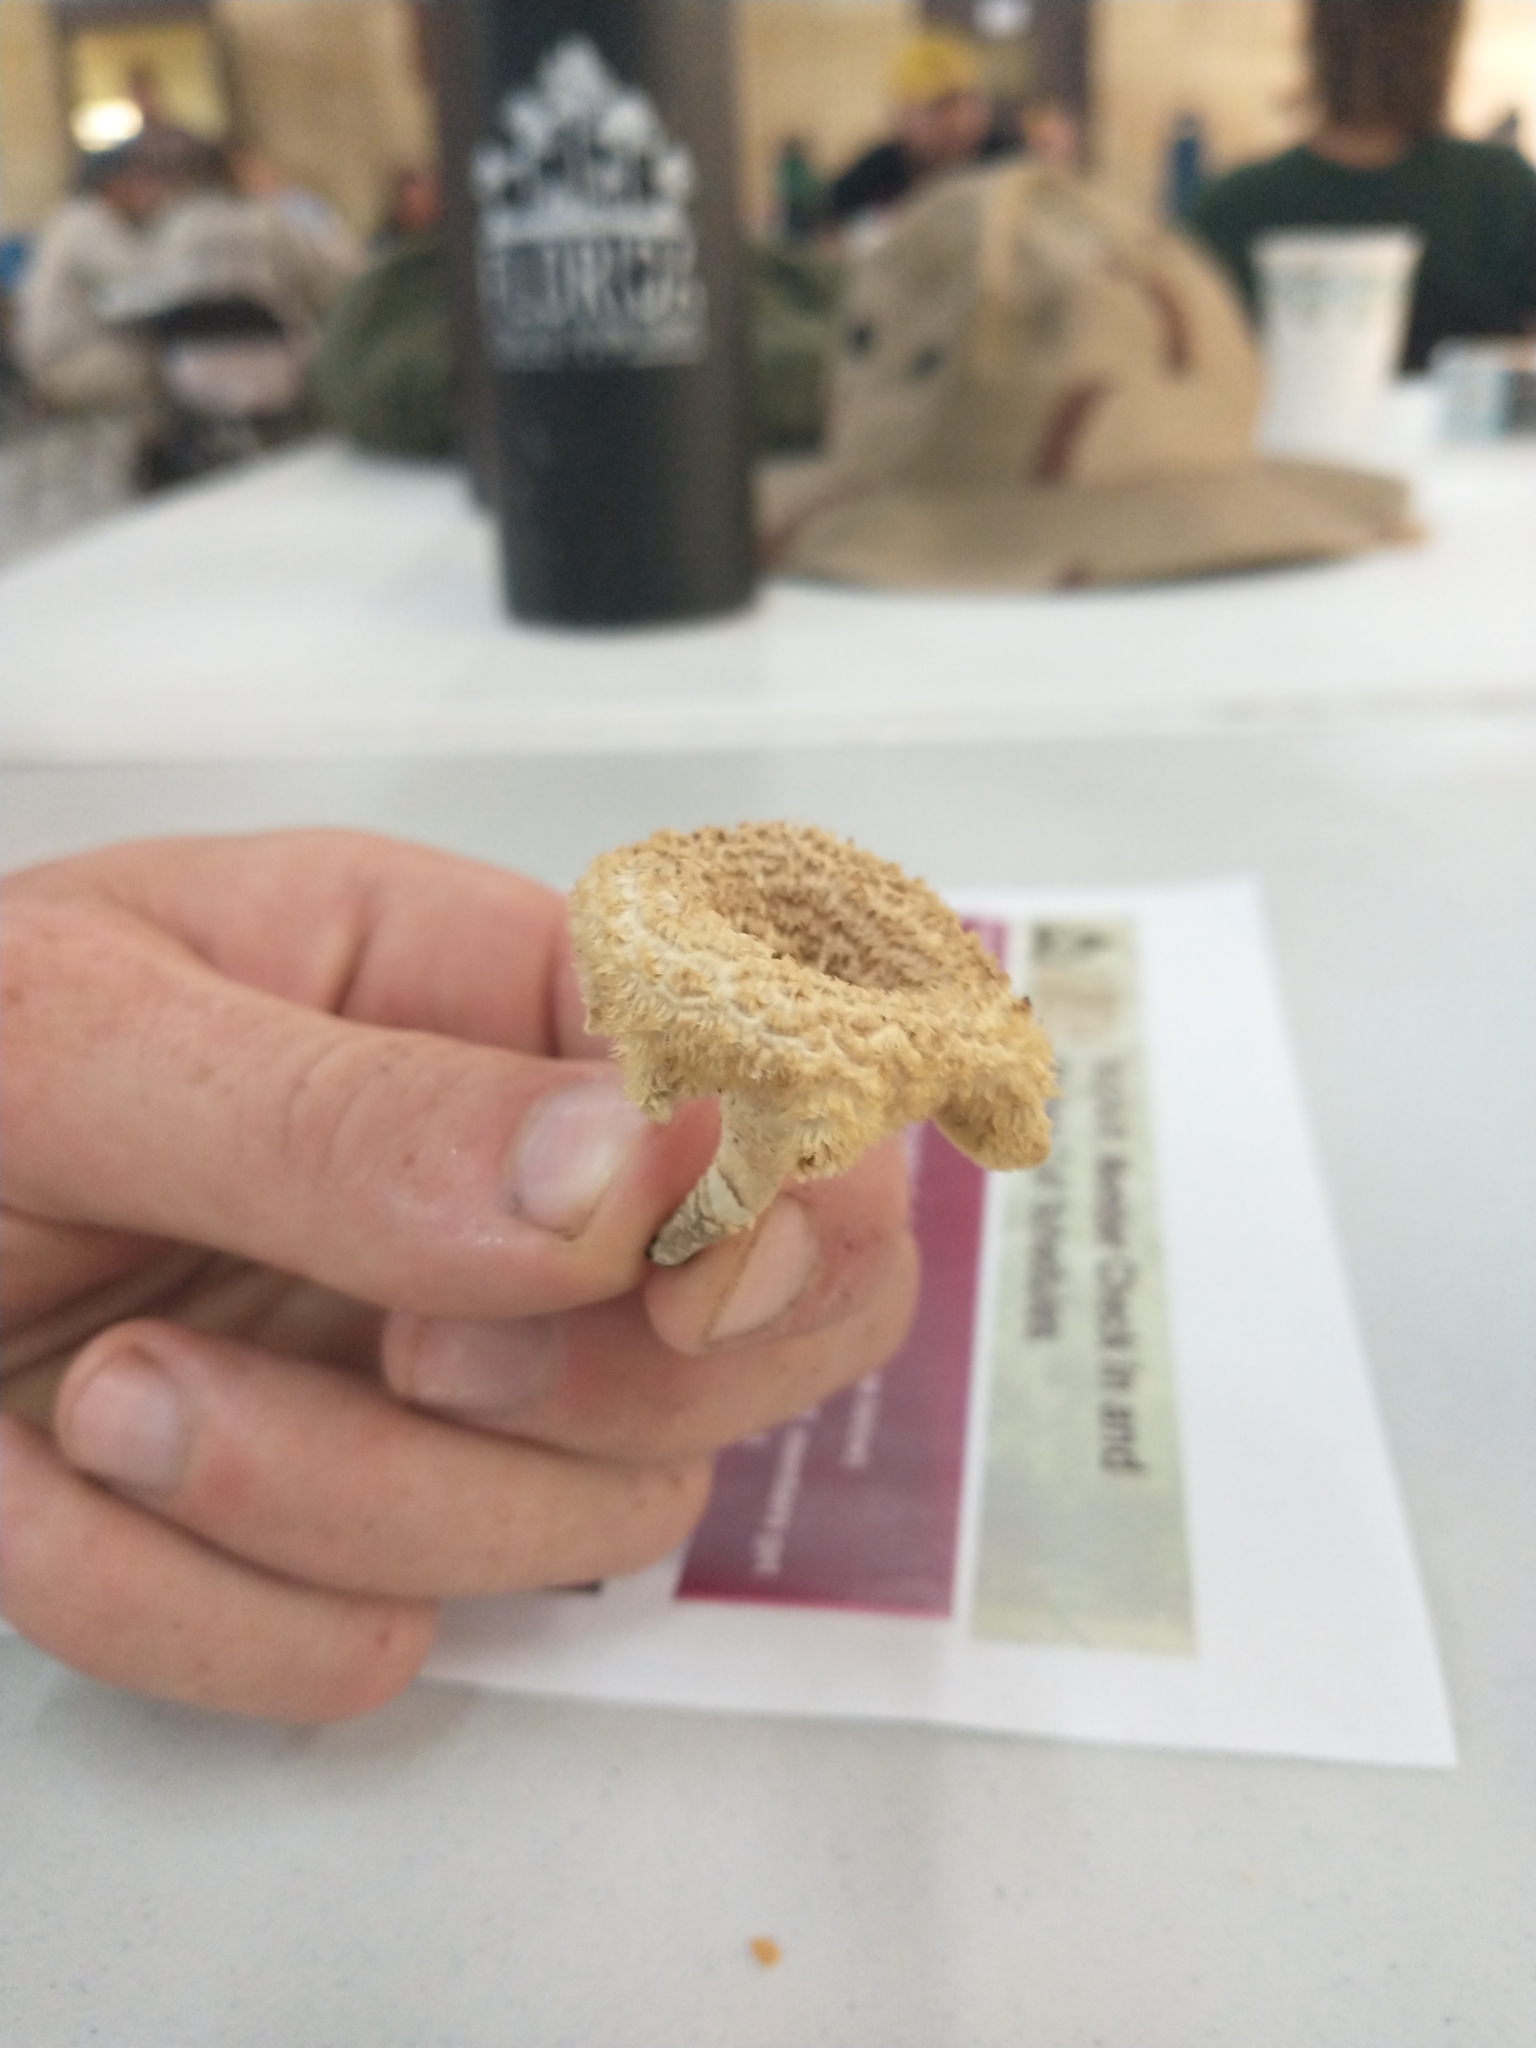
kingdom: Fungi
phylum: Basidiomycota
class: Agaricomycetes
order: Polyporales
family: Polyporaceae
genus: Lentinus
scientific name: Lentinus crinitus
